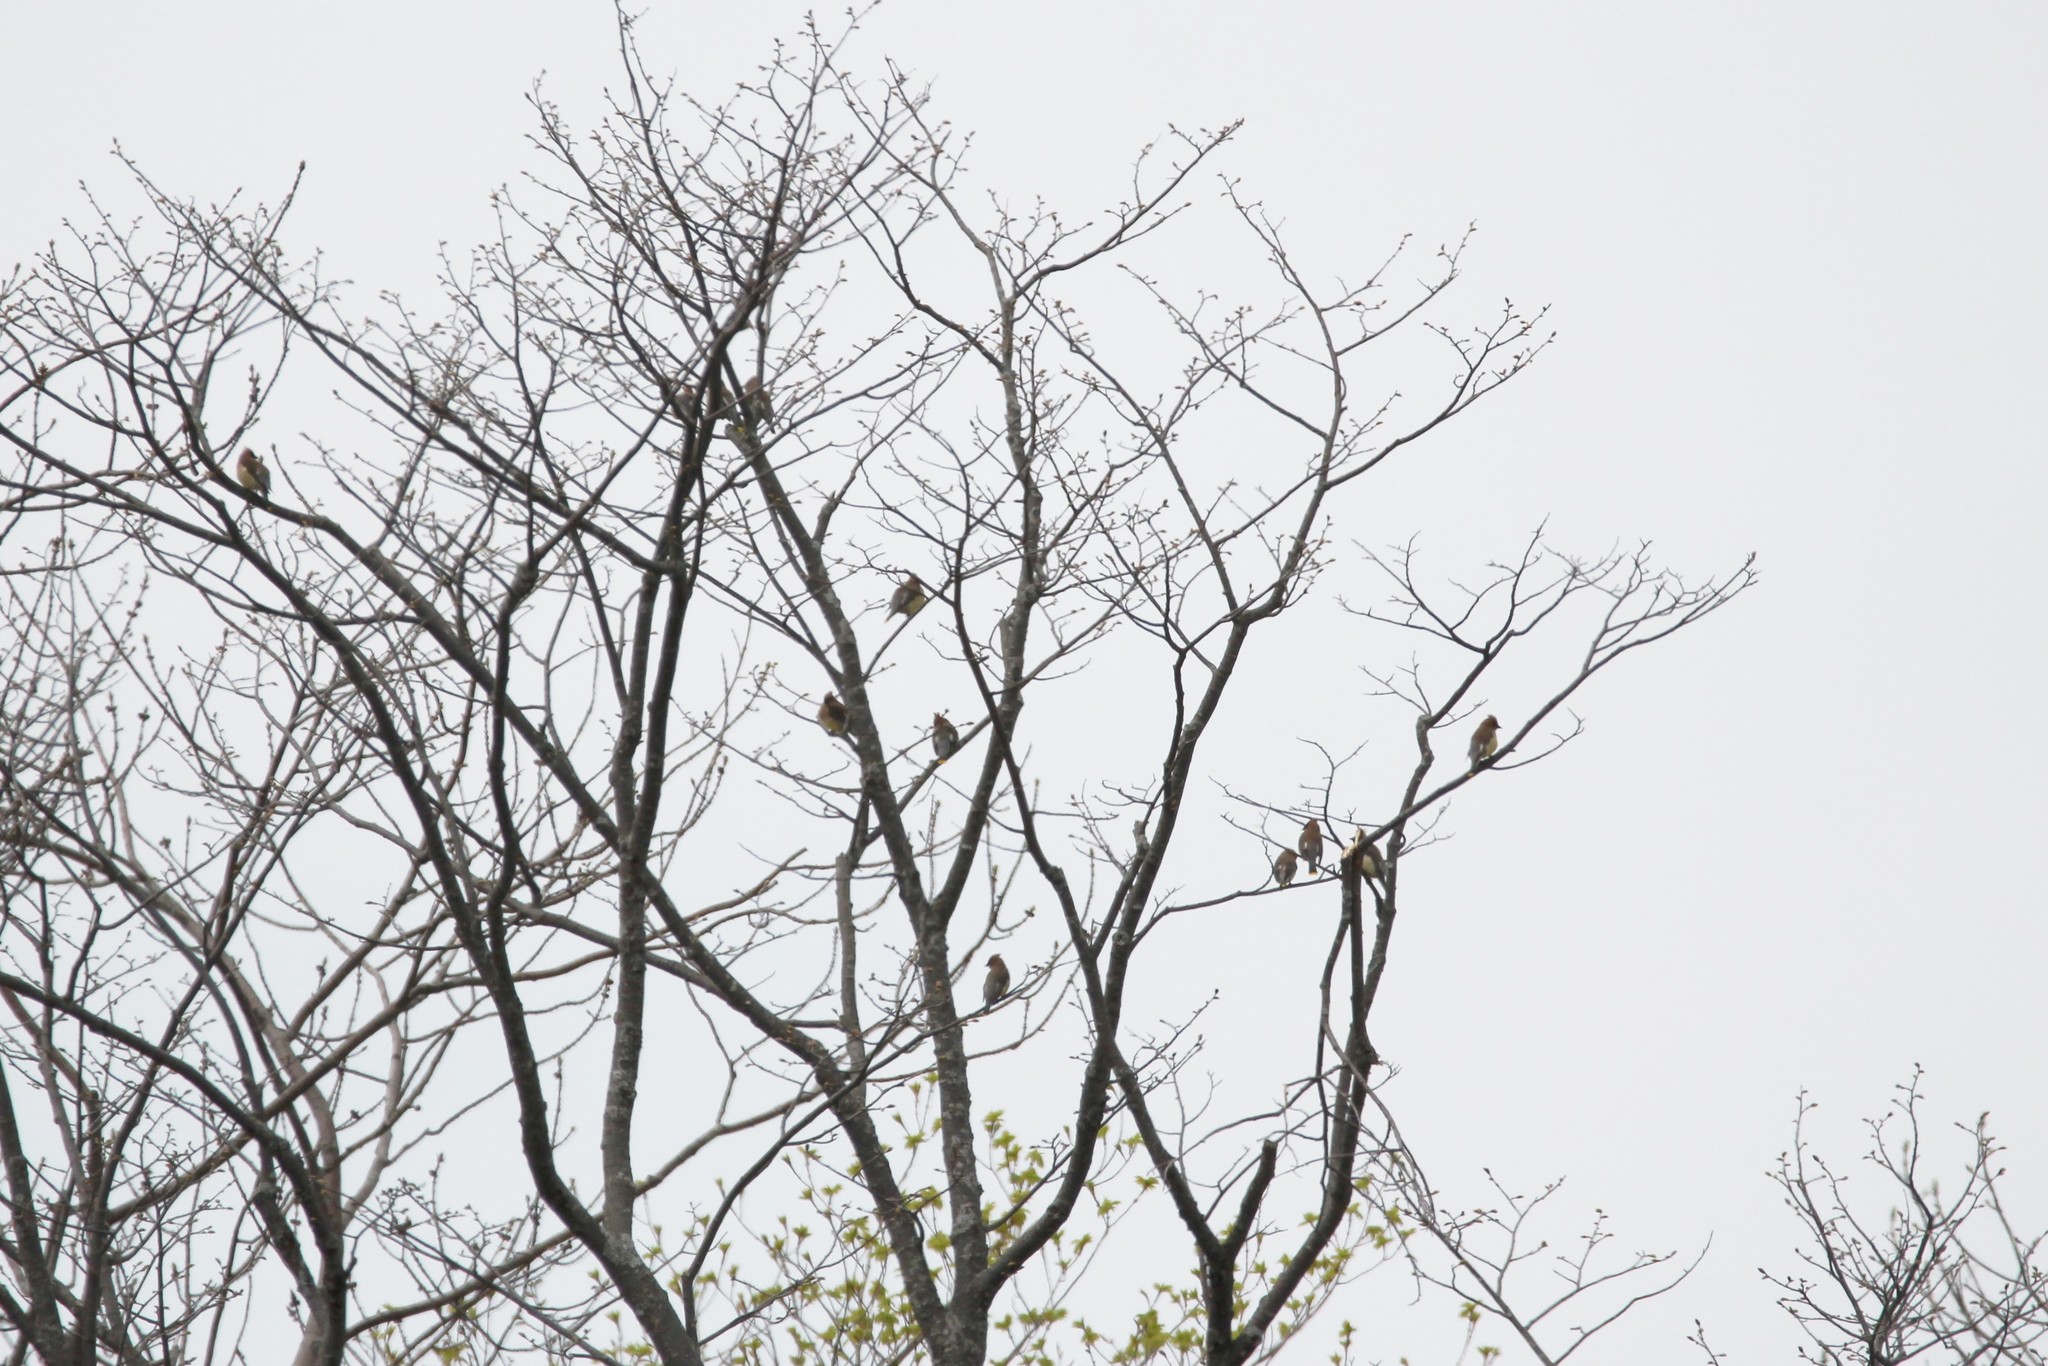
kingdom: Animalia
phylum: Chordata
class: Aves
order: Passeriformes
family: Bombycillidae
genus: Bombycilla
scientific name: Bombycilla cedrorum
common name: Cedar waxwing
